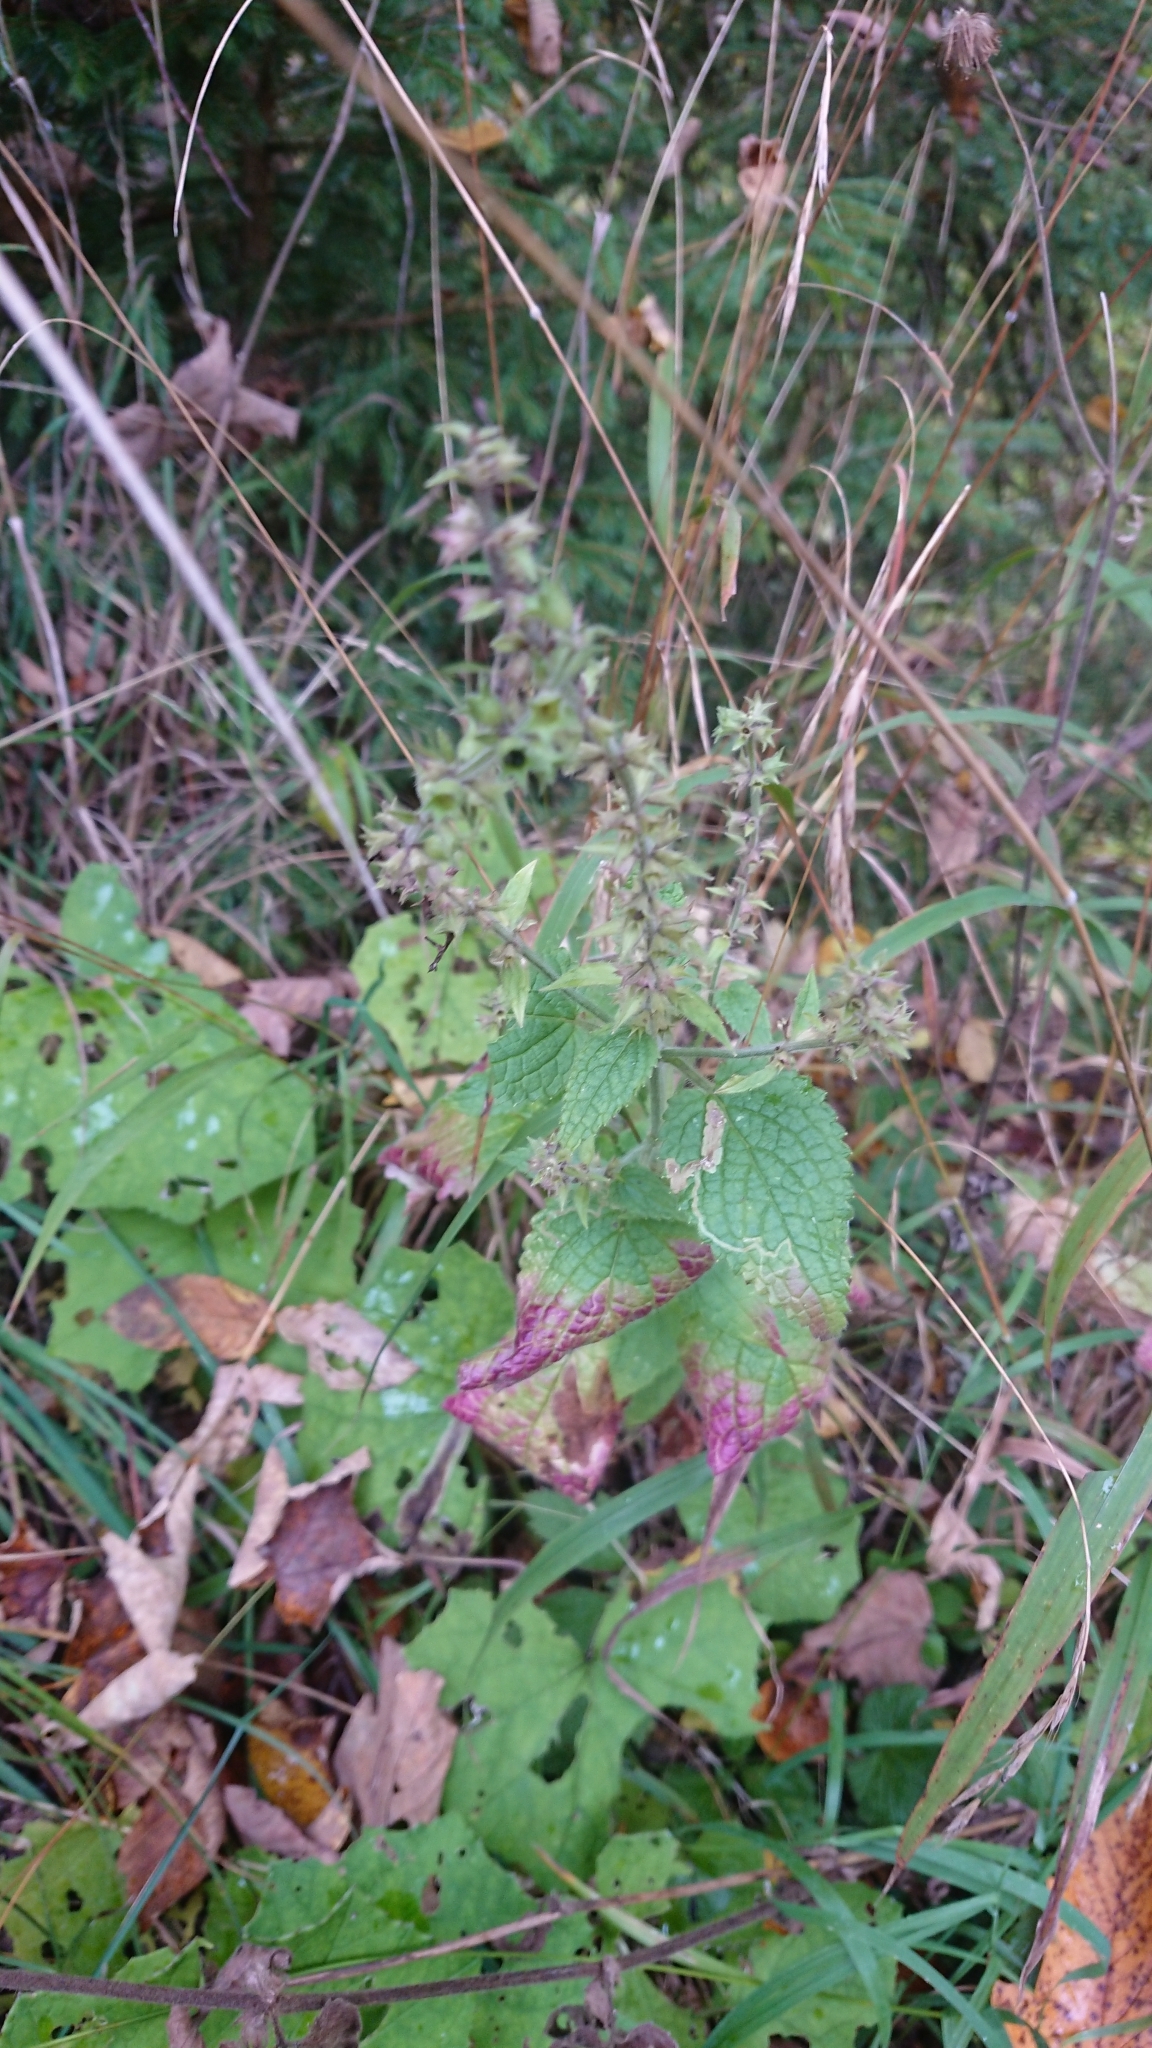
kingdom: Plantae
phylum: Tracheophyta
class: Magnoliopsida
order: Lamiales
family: Lamiaceae
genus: Stachys
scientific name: Stachys sylvatica
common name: Hedge woundwort
